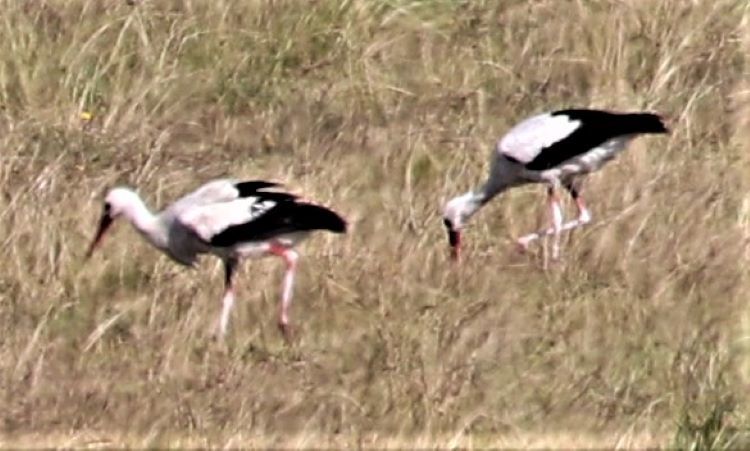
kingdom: Animalia
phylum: Chordata
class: Aves
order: Ciconiiformes
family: Ciconiidae
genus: Ciconia
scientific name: Ciconia ciconia
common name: White stork
